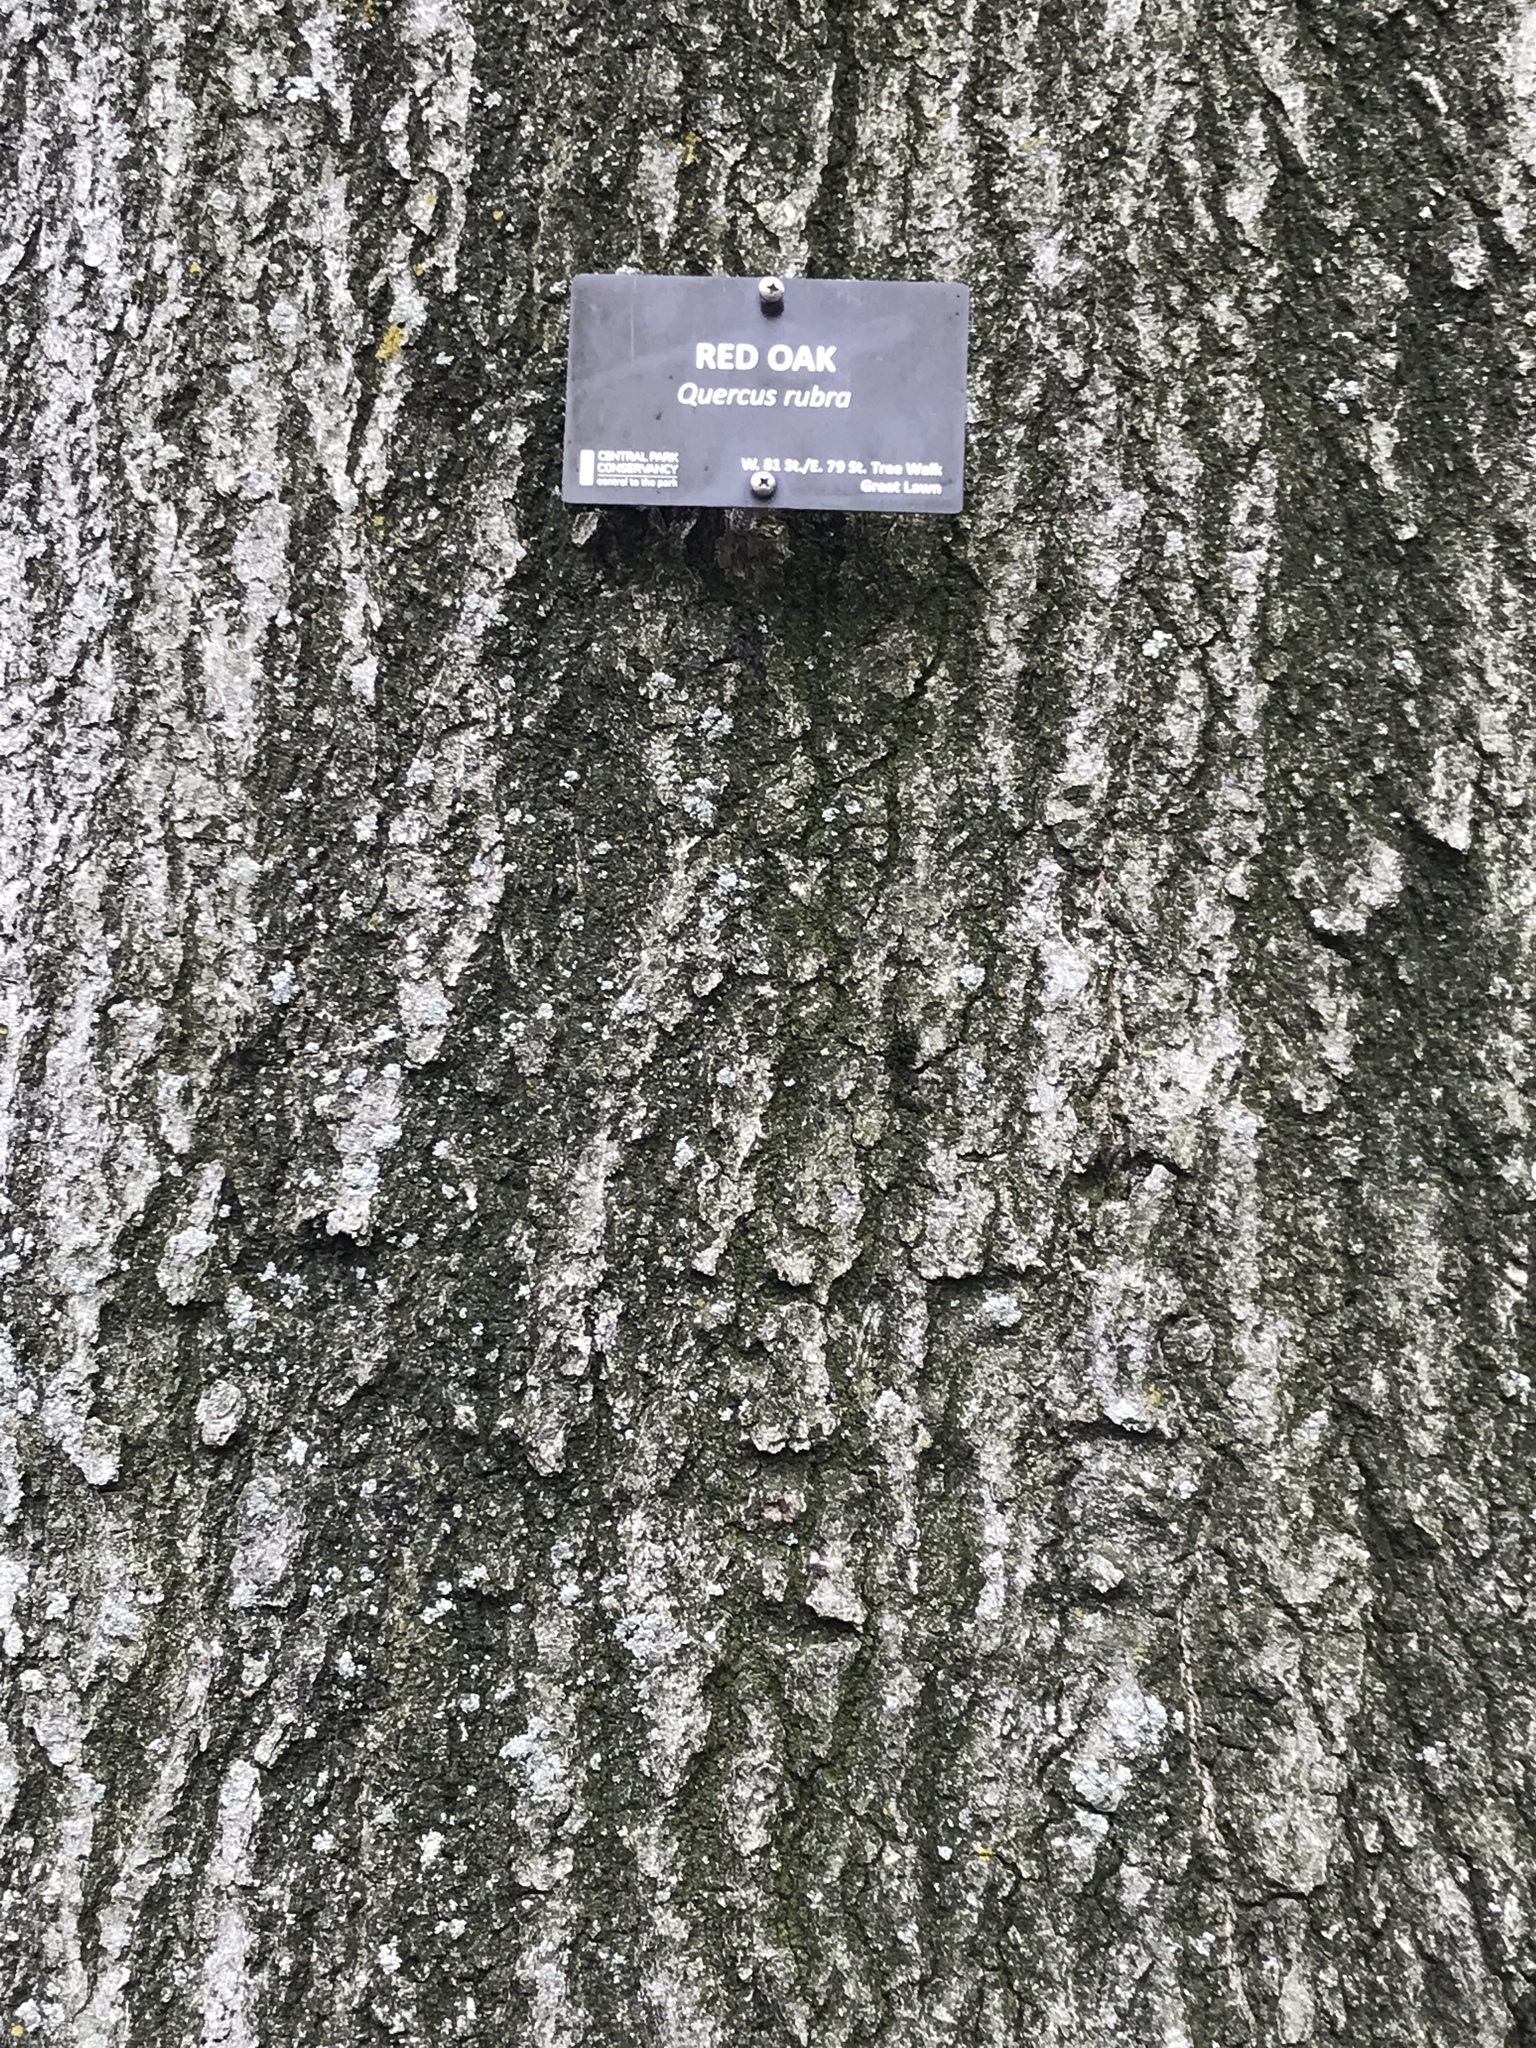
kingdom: Plantae
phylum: Tracheophyta
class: Magnoliopsida
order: Fagales
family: Fagaceae
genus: Quercus
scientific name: Quercus rubra
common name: Red oak
